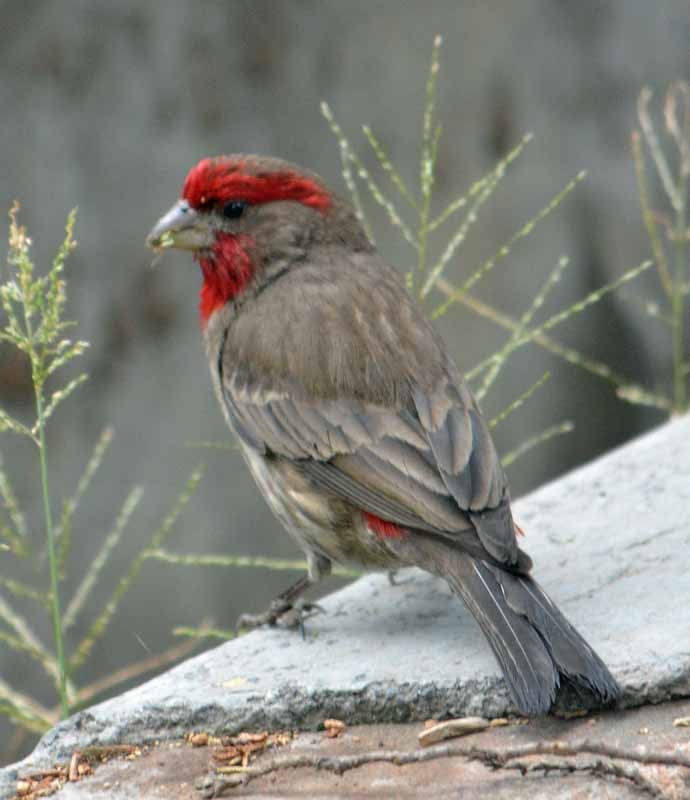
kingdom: Animalia
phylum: Chordata
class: Aves
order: Passeriformes
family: Fringillidae
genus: Haemorhous
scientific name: Haemorhous mexicanus
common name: House finch
